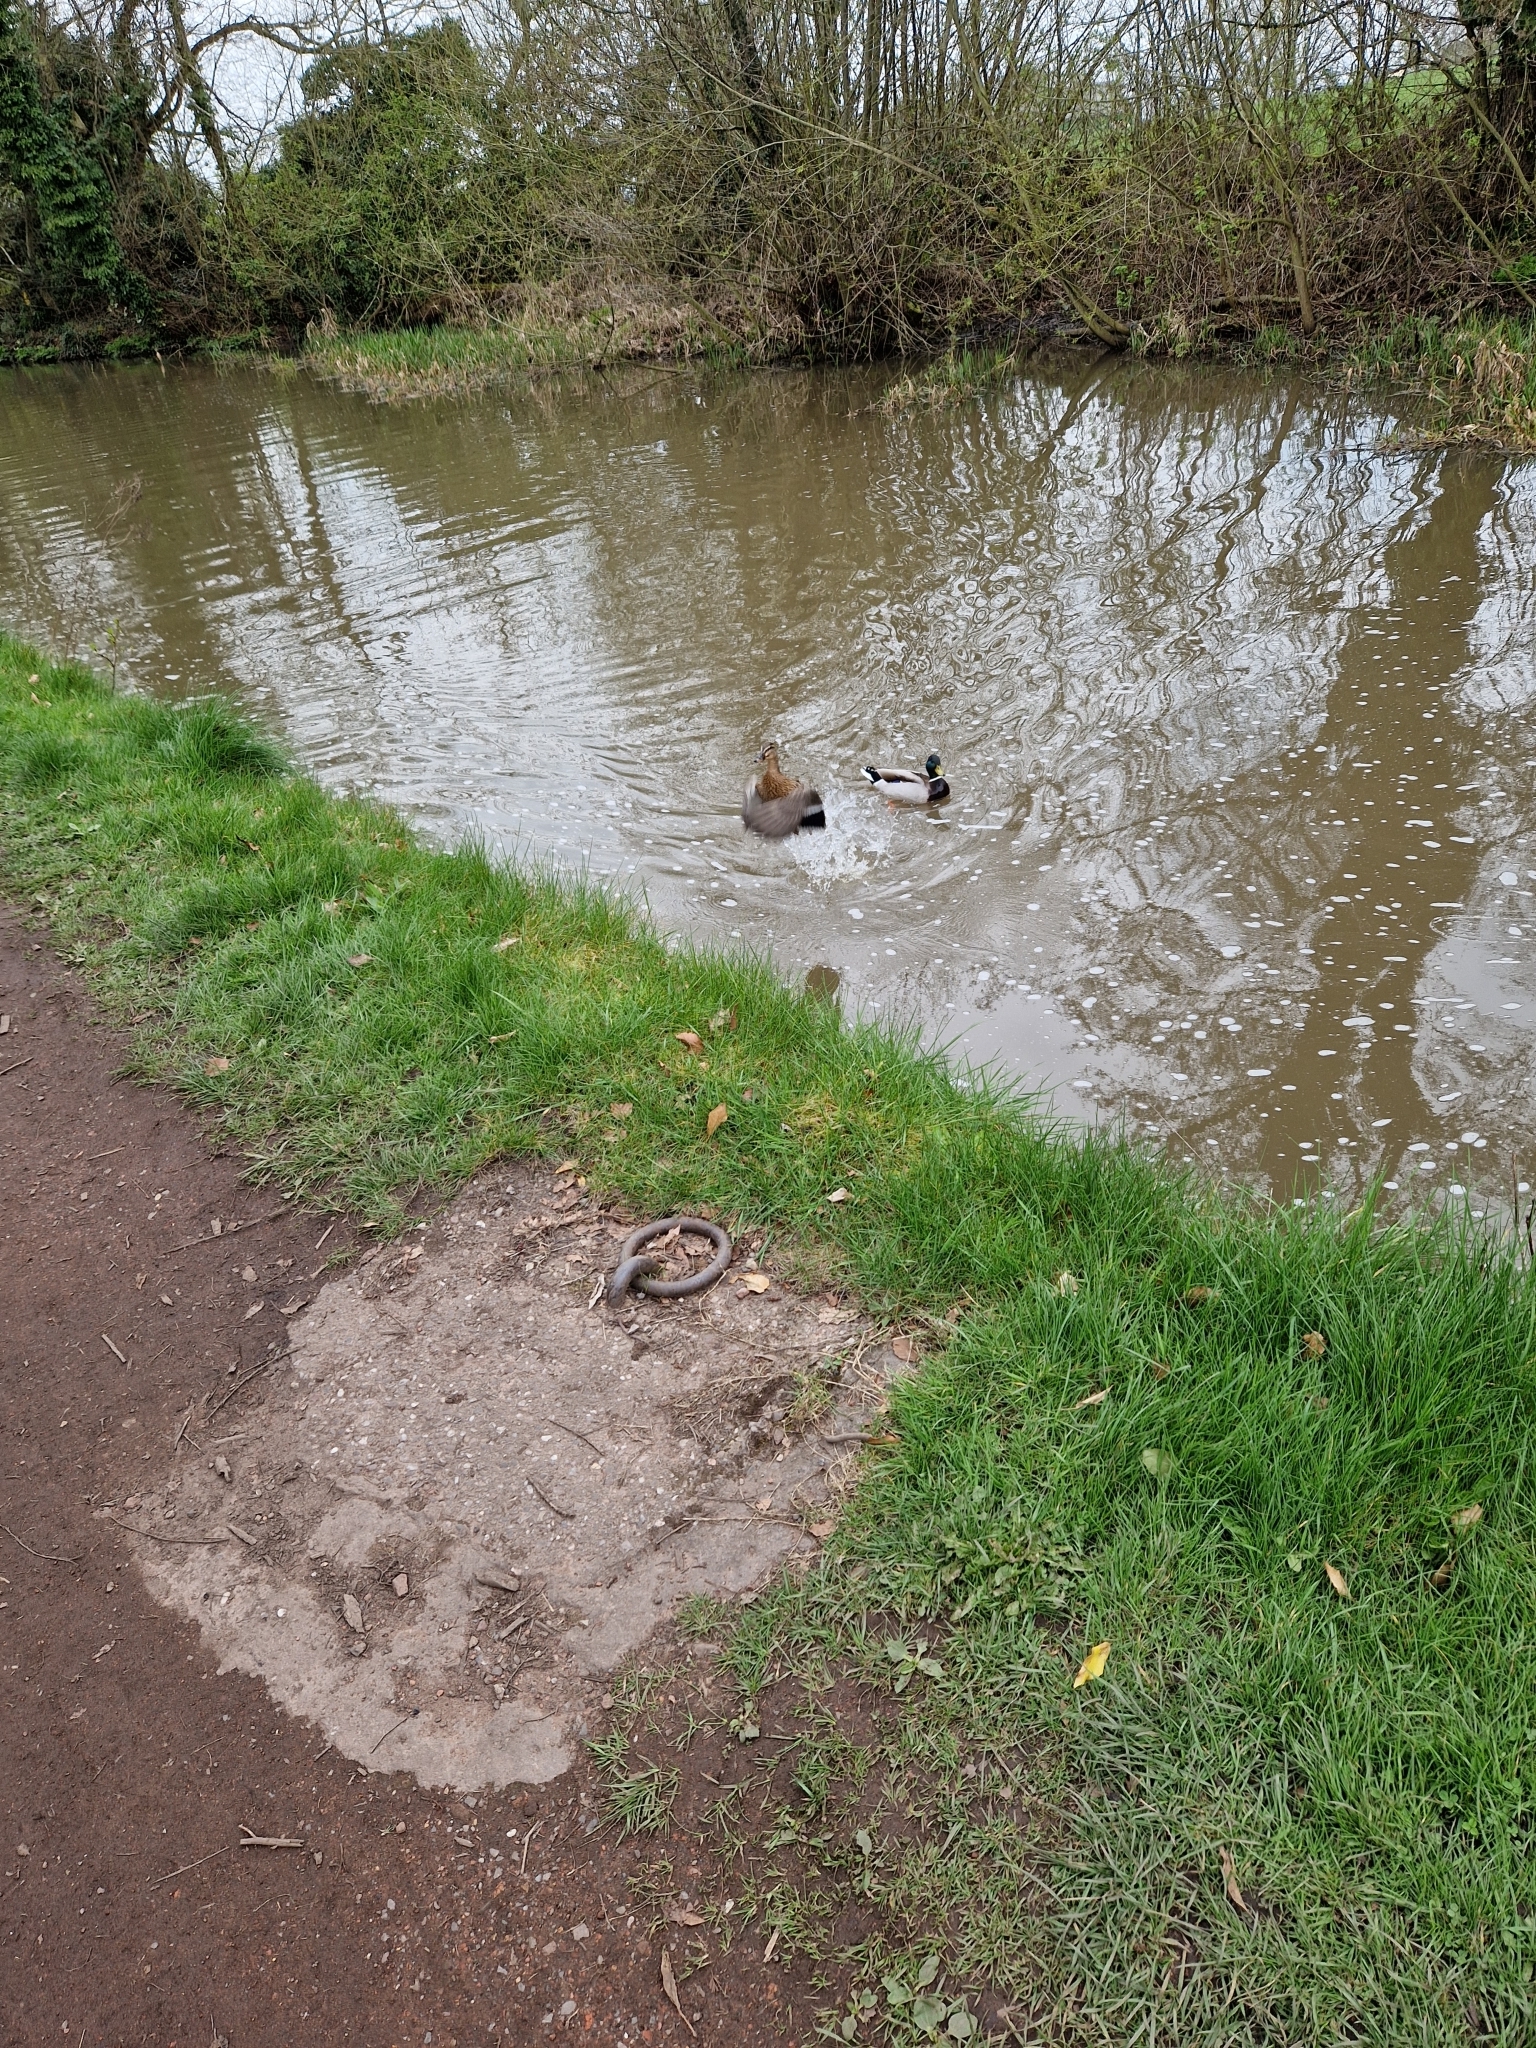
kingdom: Animalia
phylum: Chordata
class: Aves
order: Anseriformes
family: Anatidae
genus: Anas
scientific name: Anas platyrhynchos
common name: Mallard
